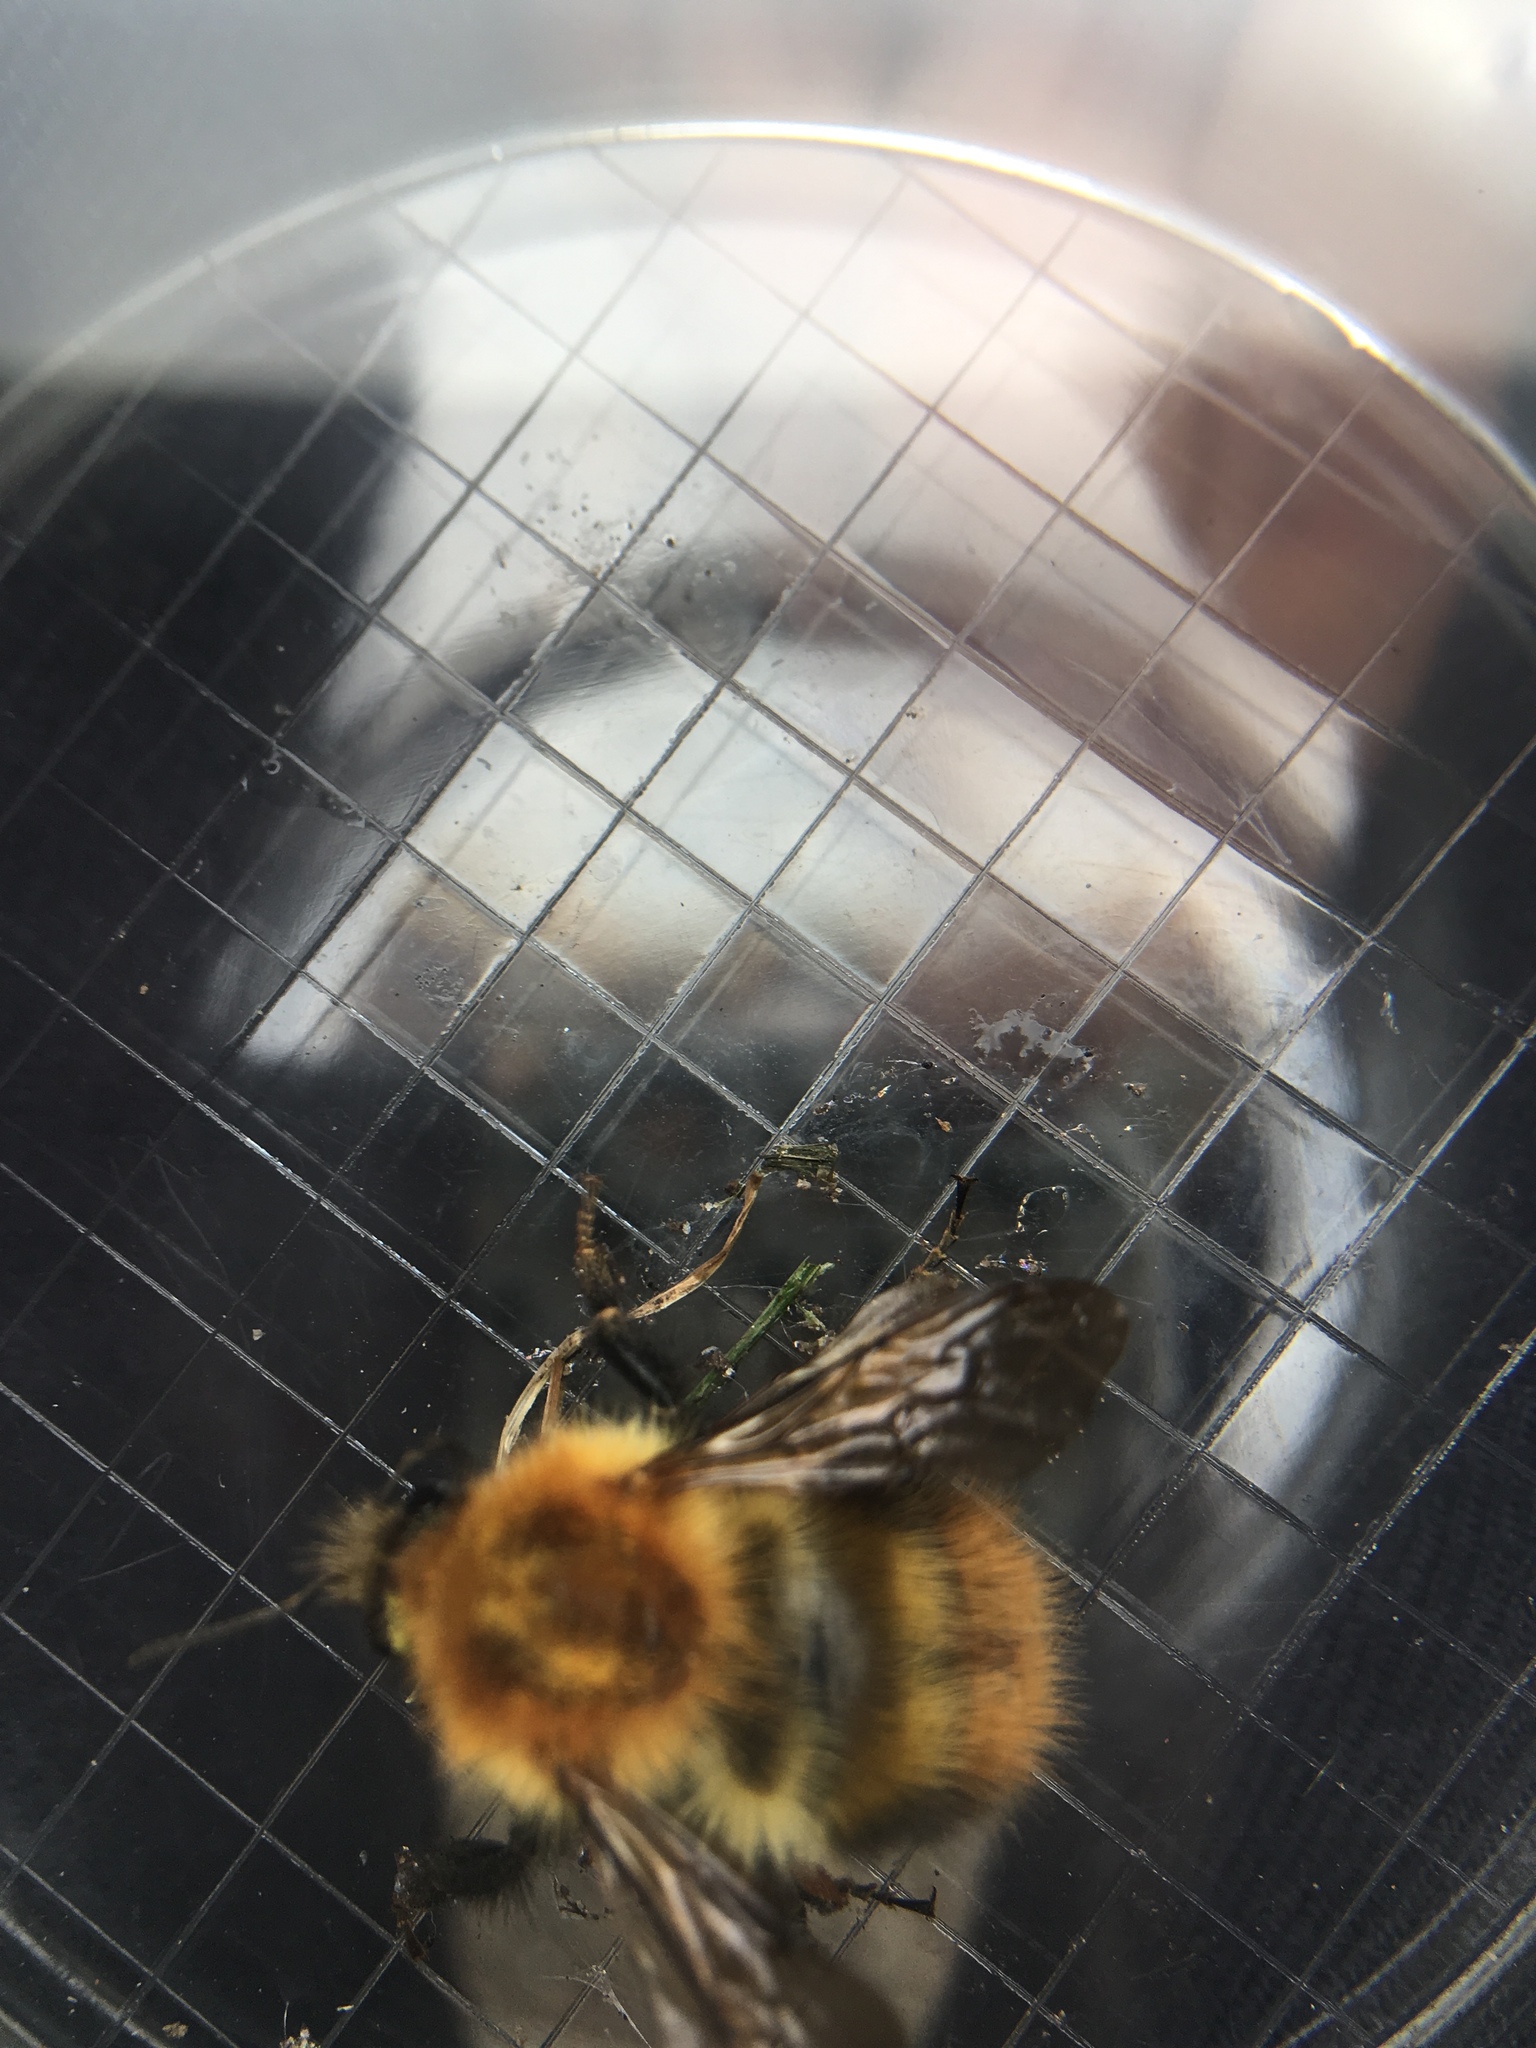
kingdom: Animalia
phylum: Arthropoda
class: Insecta
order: Hymenoptera
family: Apidae
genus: Bombus
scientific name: Bombus pascuorum
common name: Common carder bee
